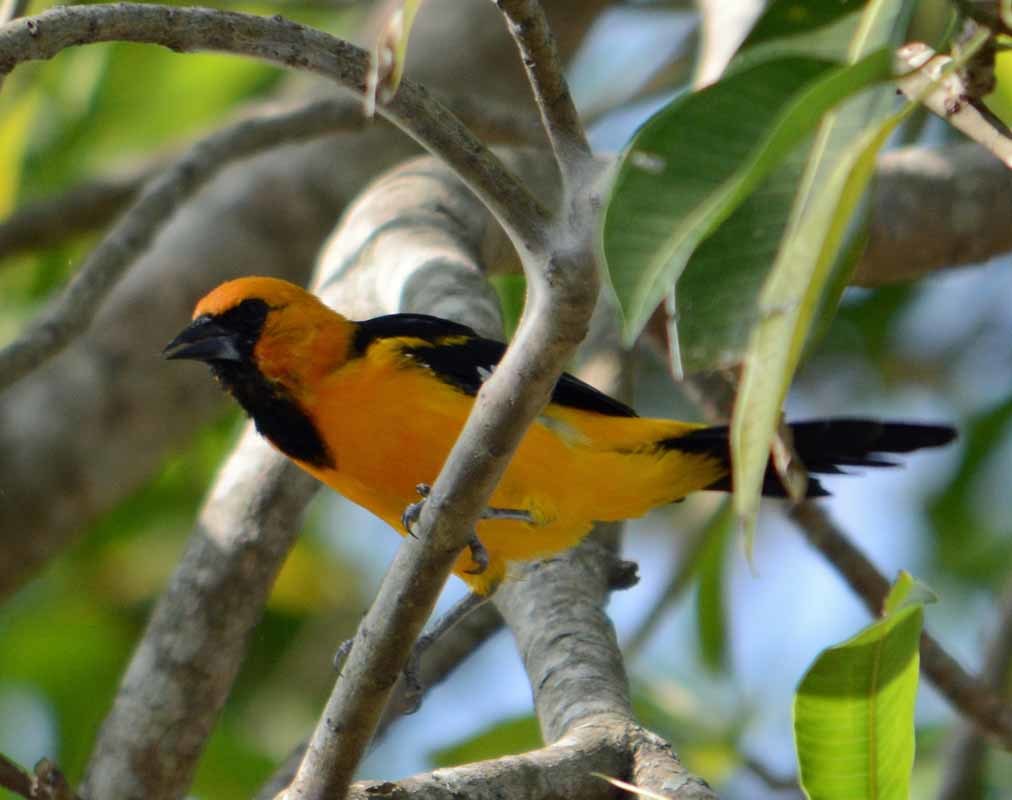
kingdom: Animalia
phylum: Chordata
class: Aves
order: Passeriformes
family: Icteridae
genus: Icterus
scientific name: Icterus gularis
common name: Altamira oriole
